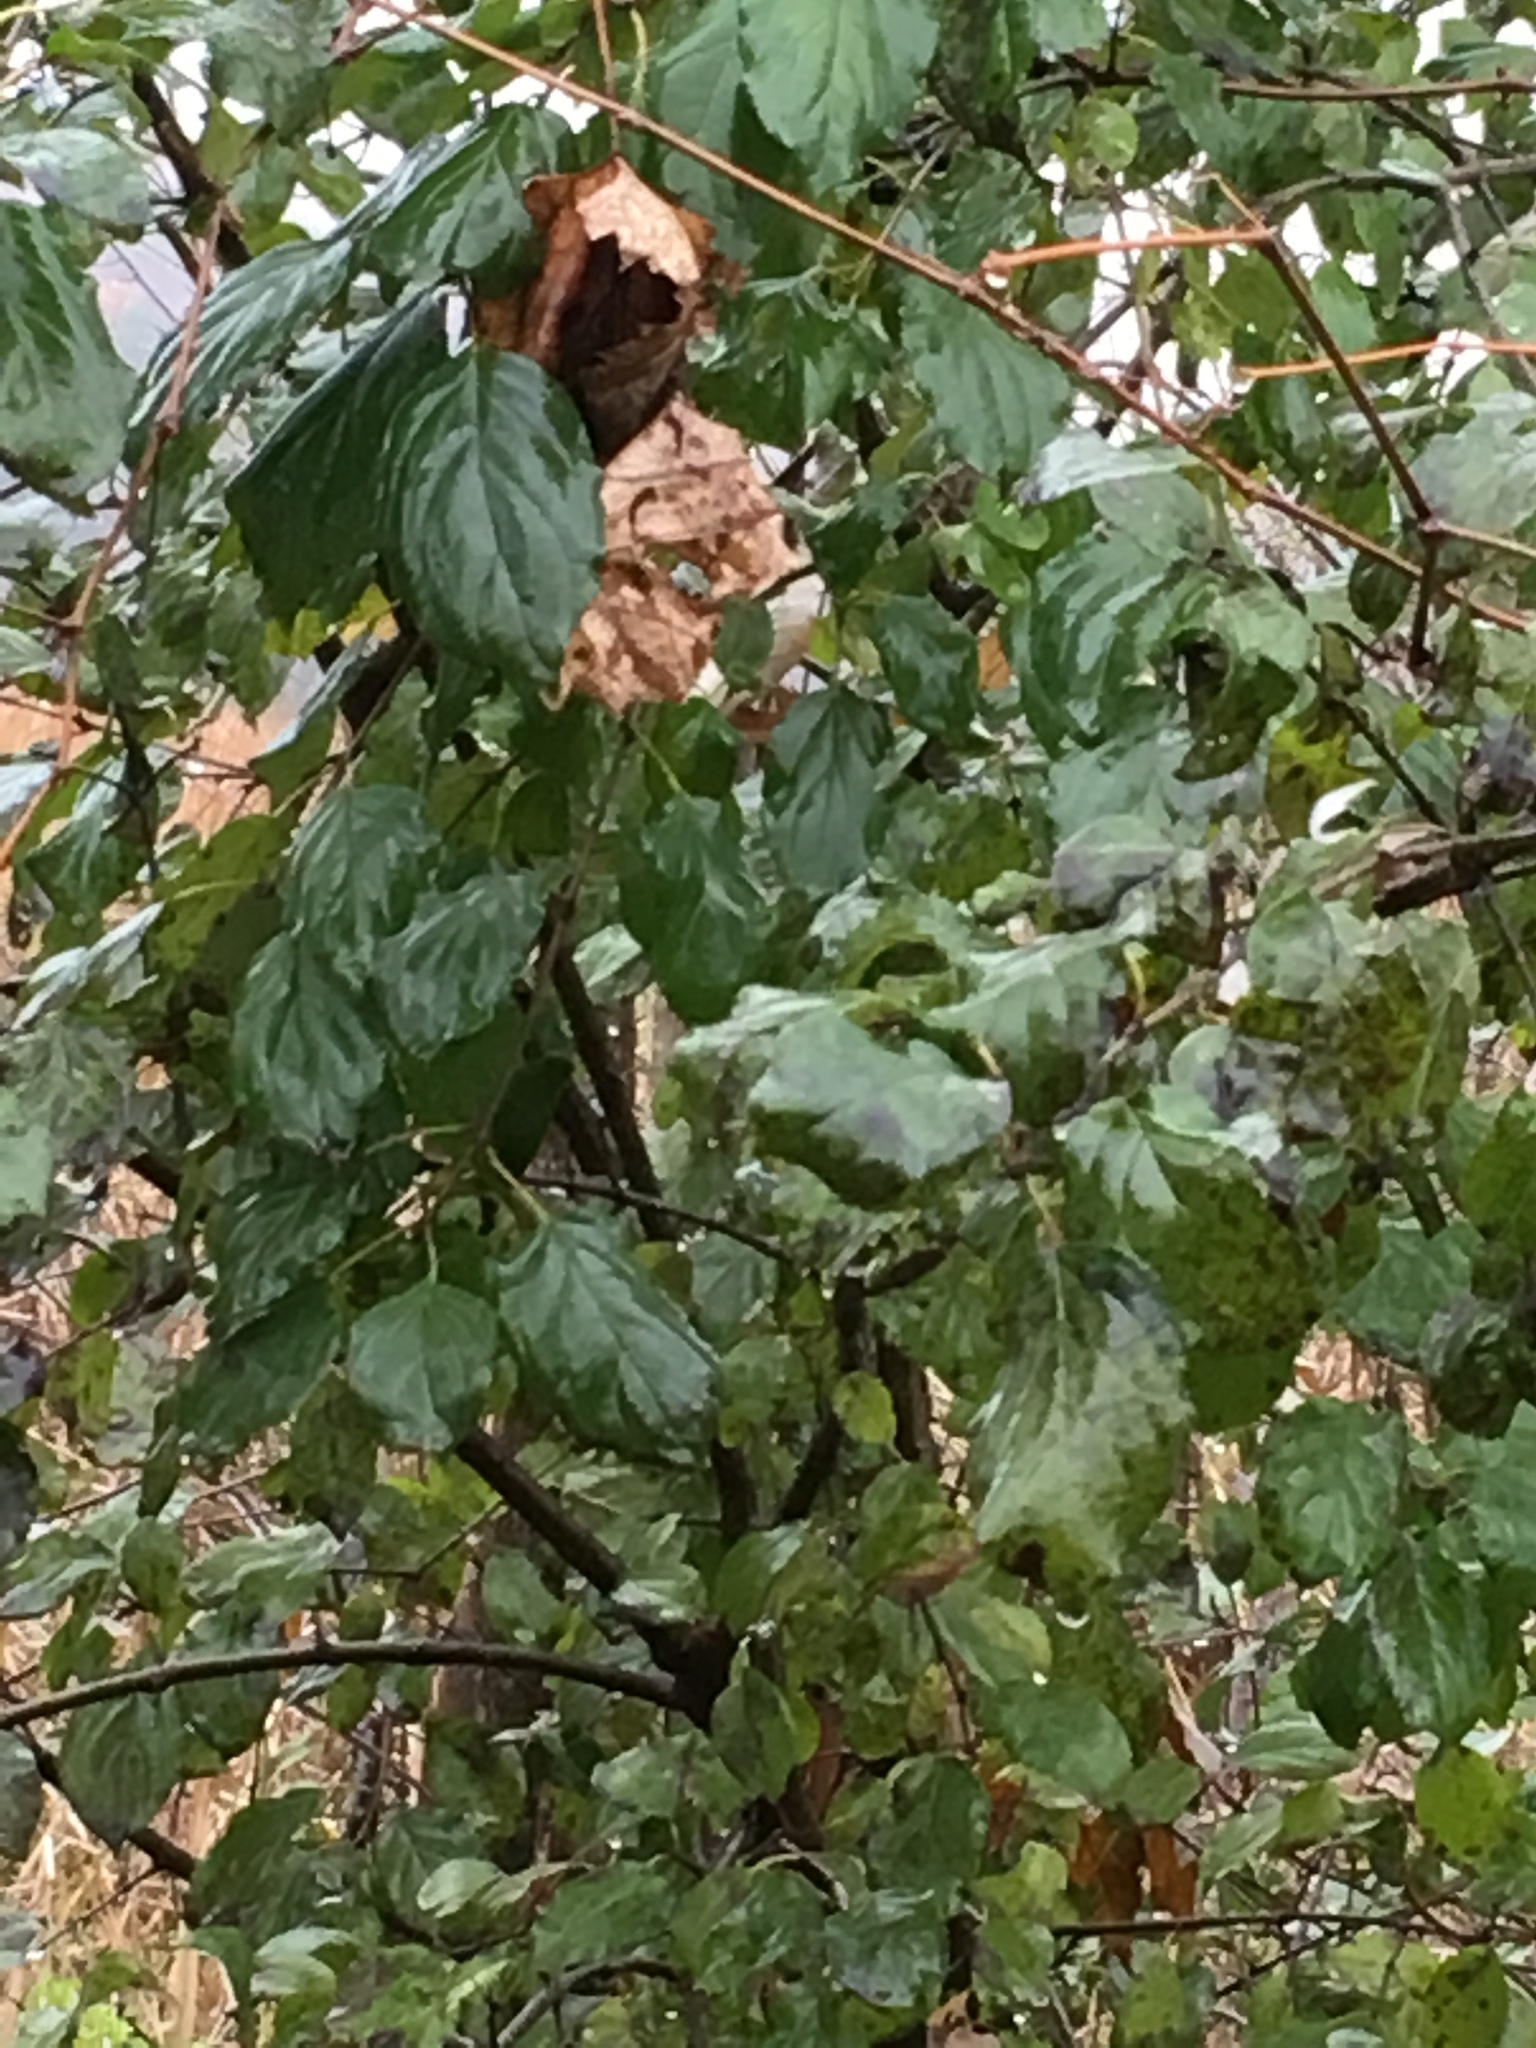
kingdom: Plantae
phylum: Tracheophyta
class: Magnoliopsida
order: Rosales
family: Rhamnaceae
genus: Rhamnus
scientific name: Rhamnus cathartica
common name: Common buckthorn
